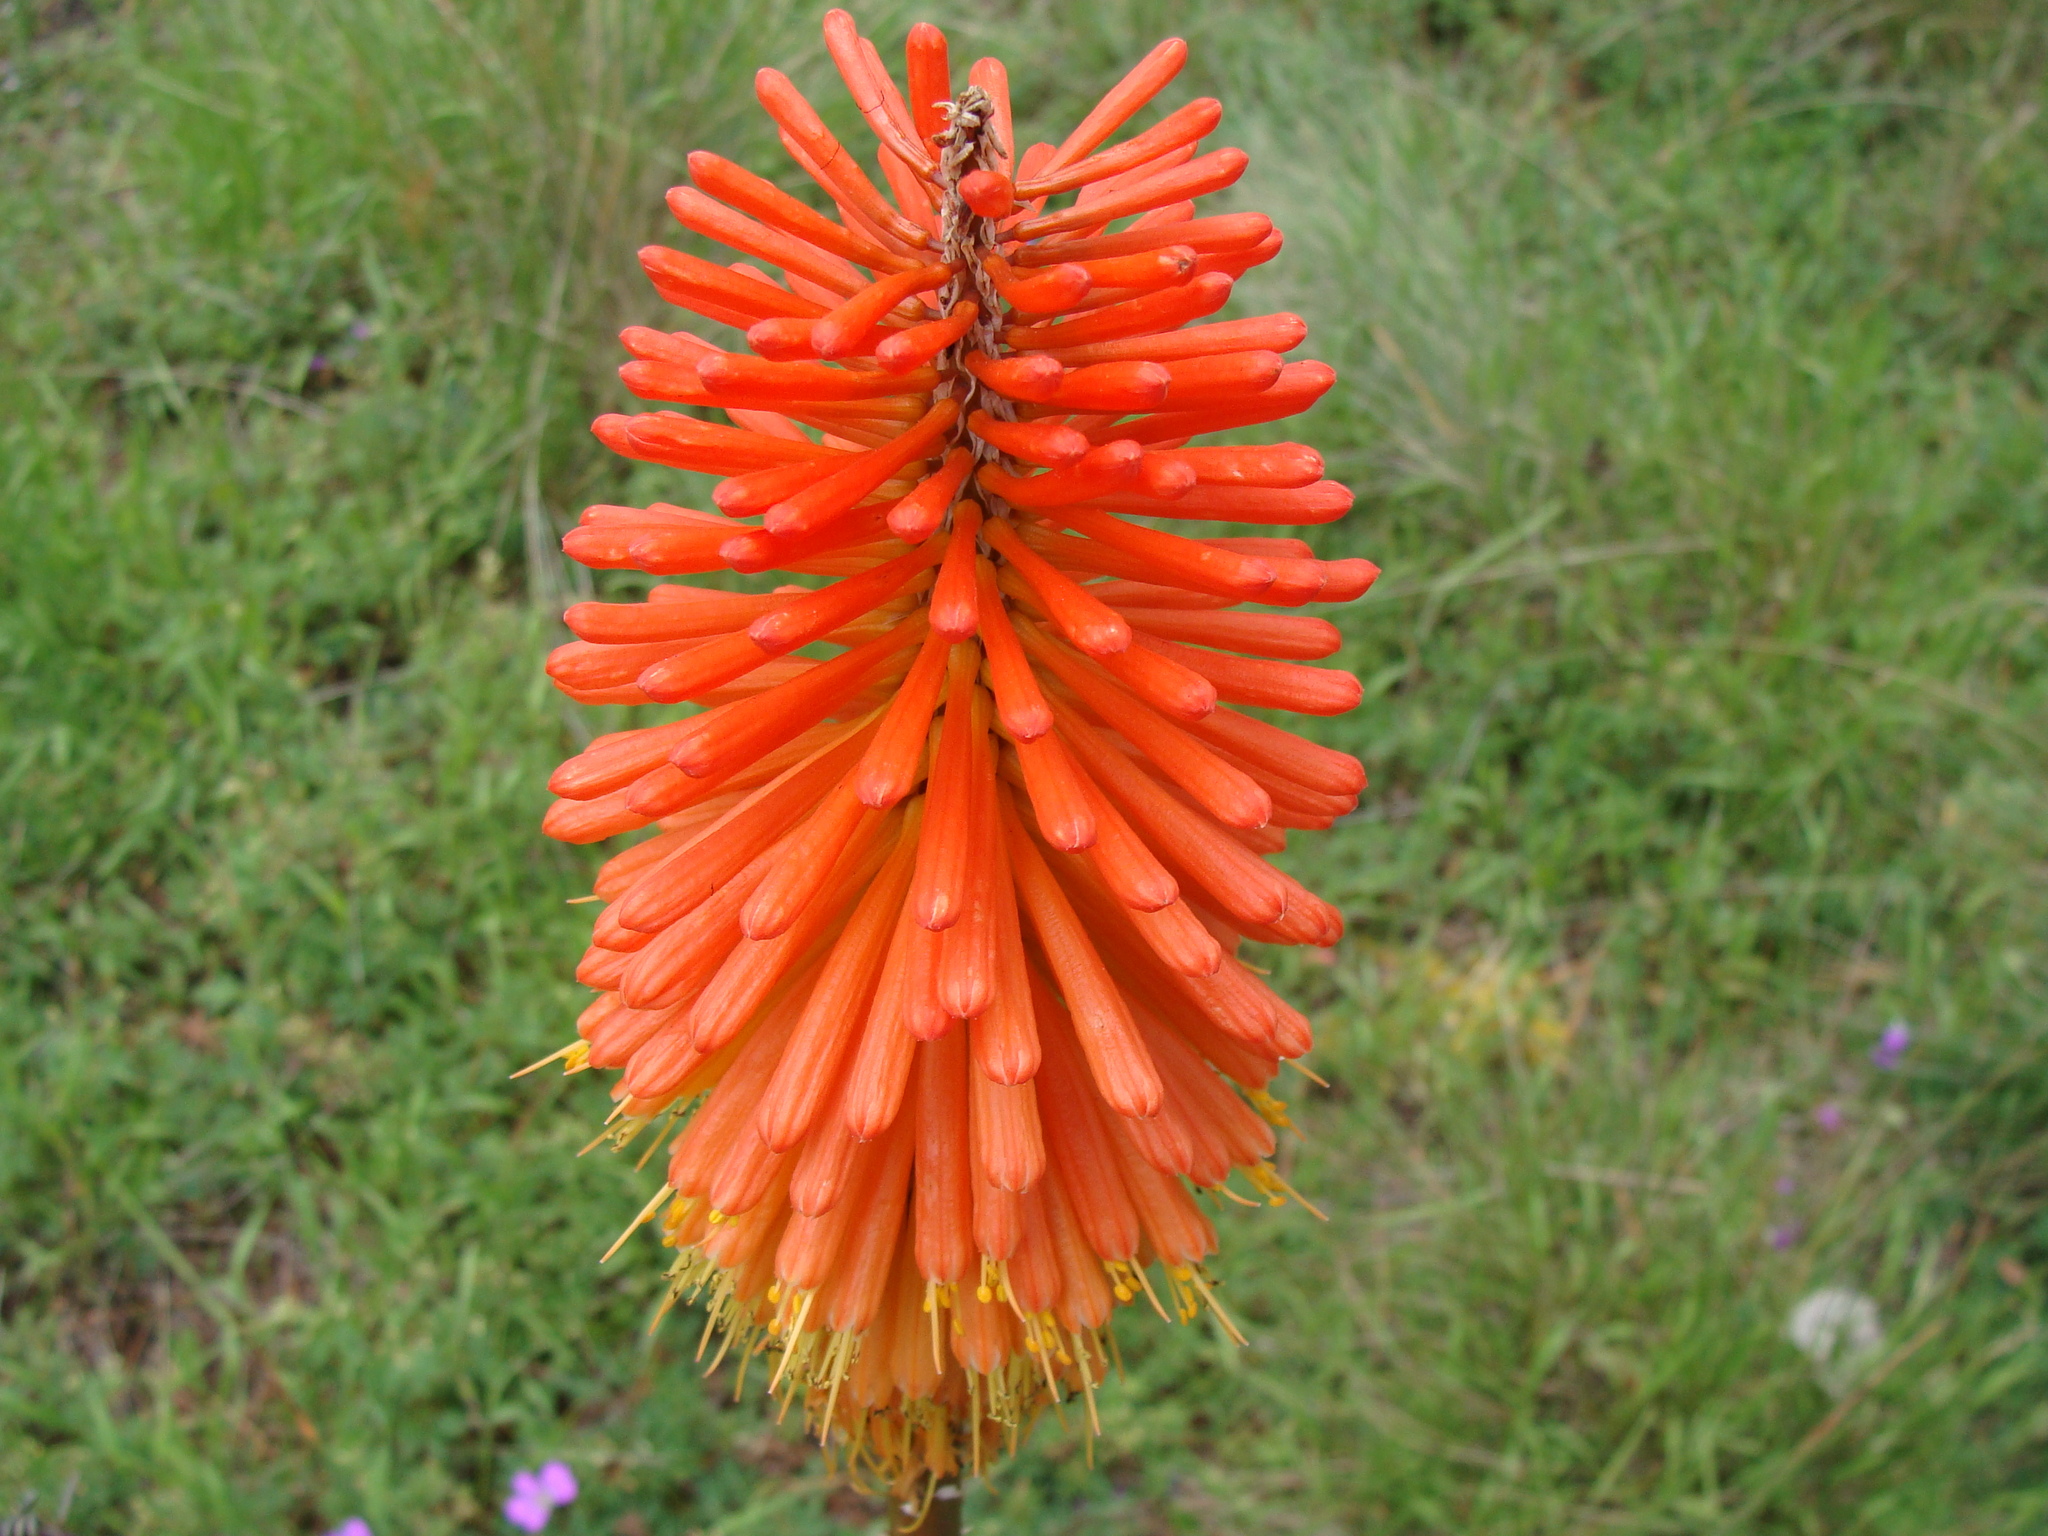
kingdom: Plantae
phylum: Tracheophyta
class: Liliopsida
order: Asparagales
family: Asphodelaceae
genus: Kniphofia
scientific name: Kniphofia uvaria
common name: Red-hot-poker
